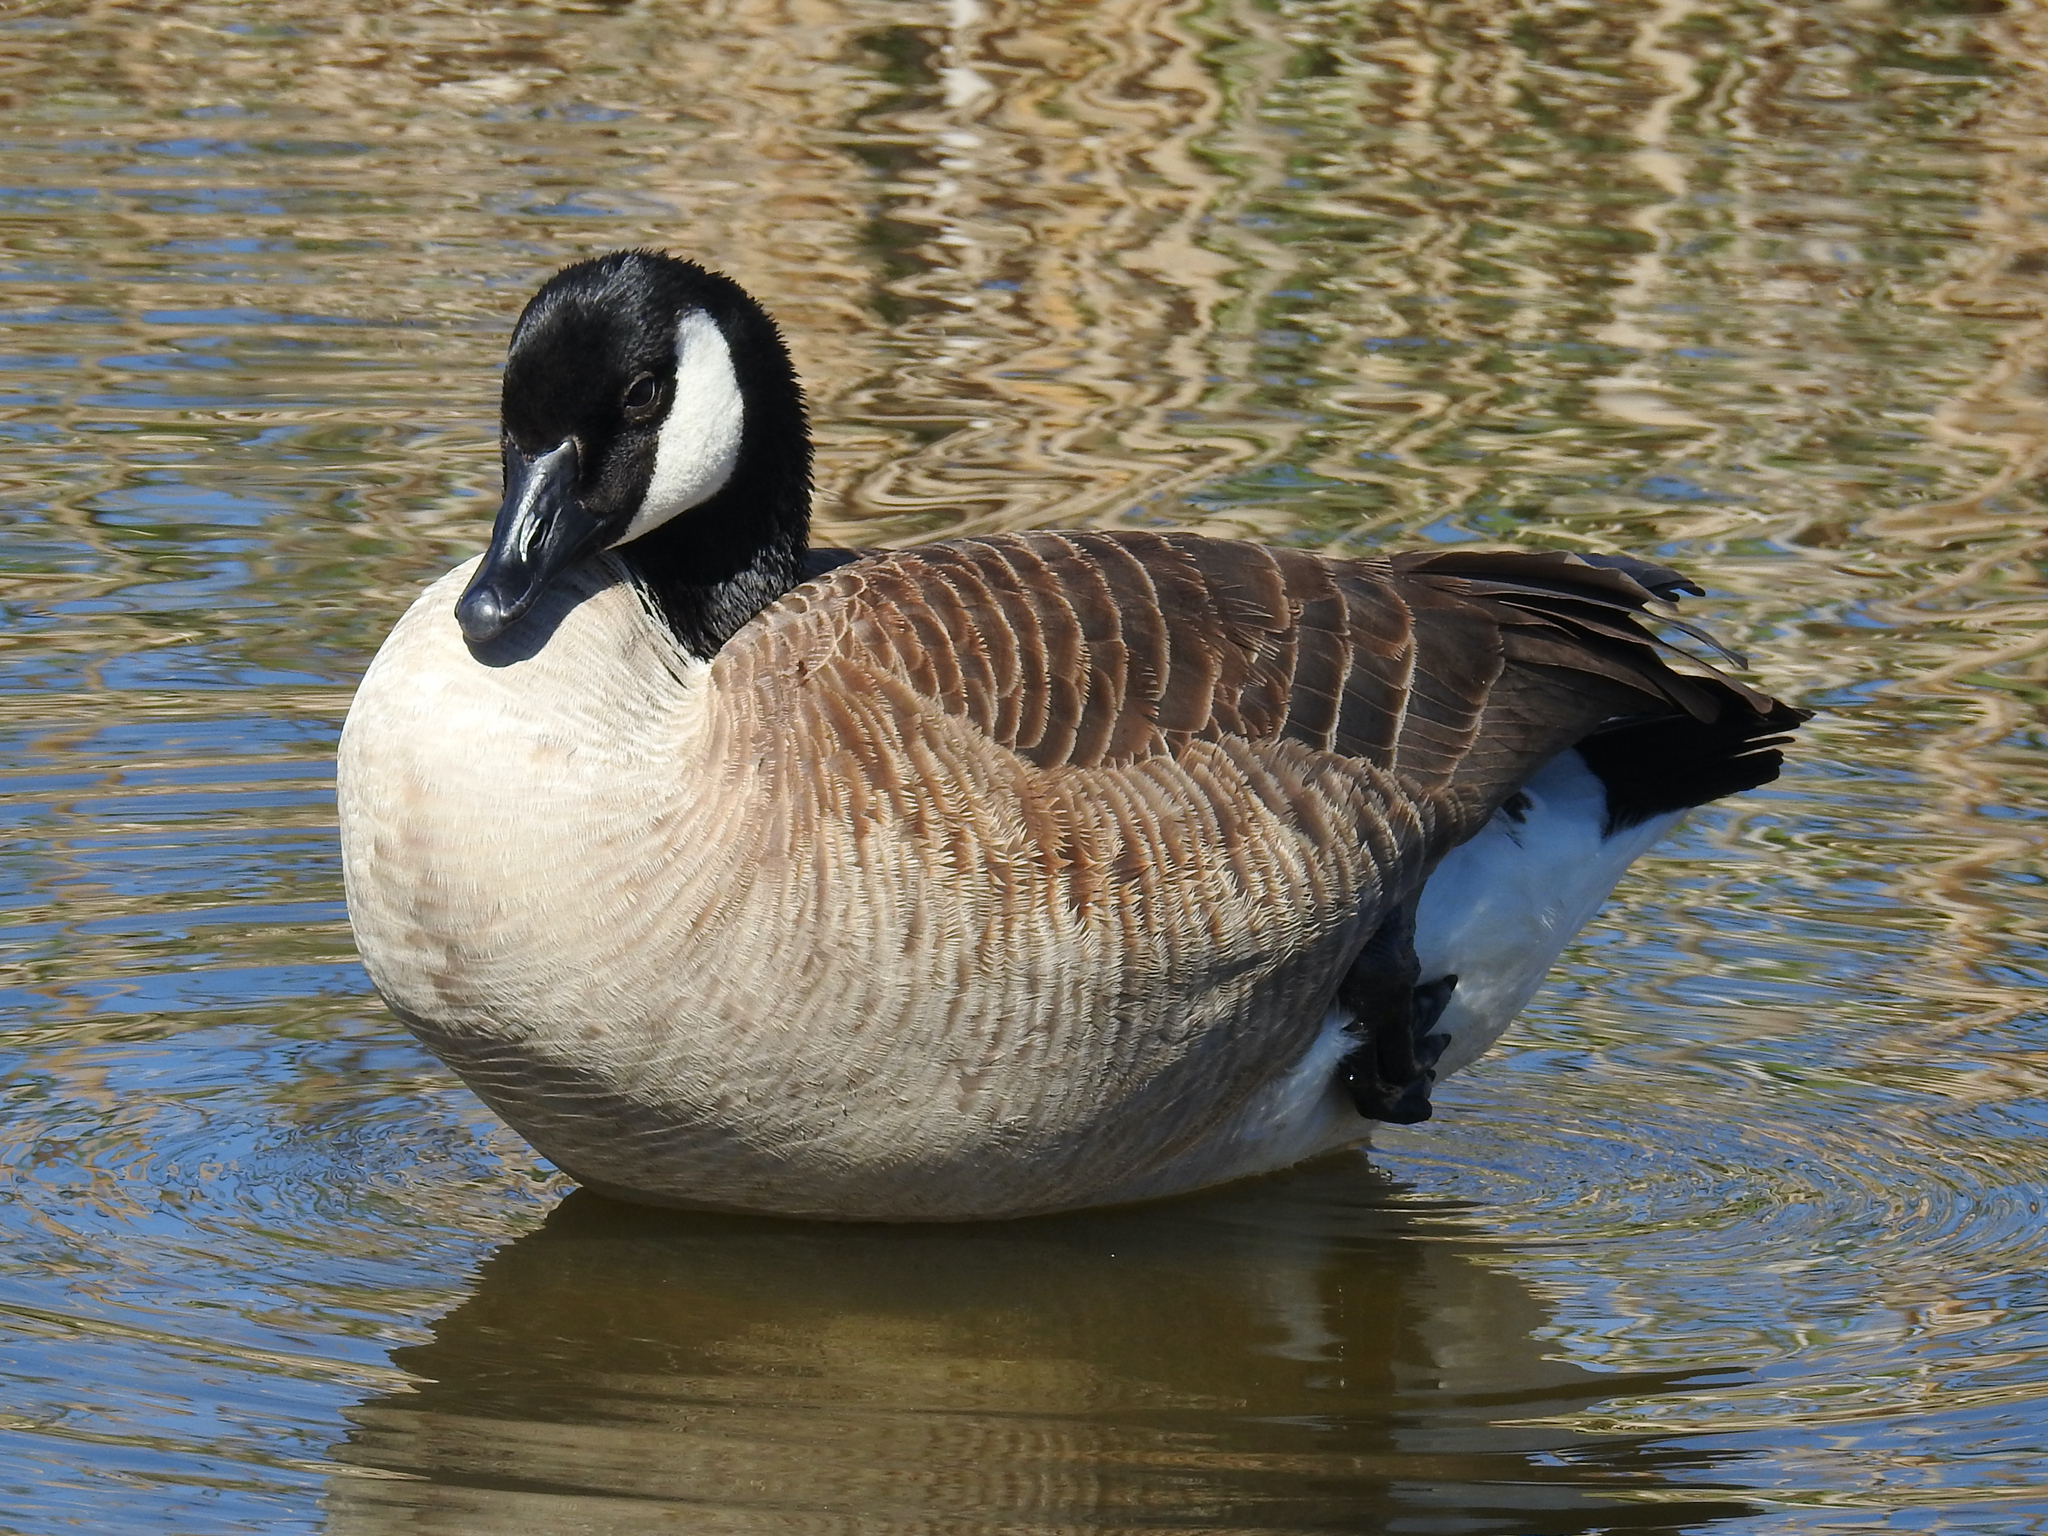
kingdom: Animalia
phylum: Chordata
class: Aves
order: Anseriformes
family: Anatidae
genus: Branta
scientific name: Branta canadensis
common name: Canada goose
